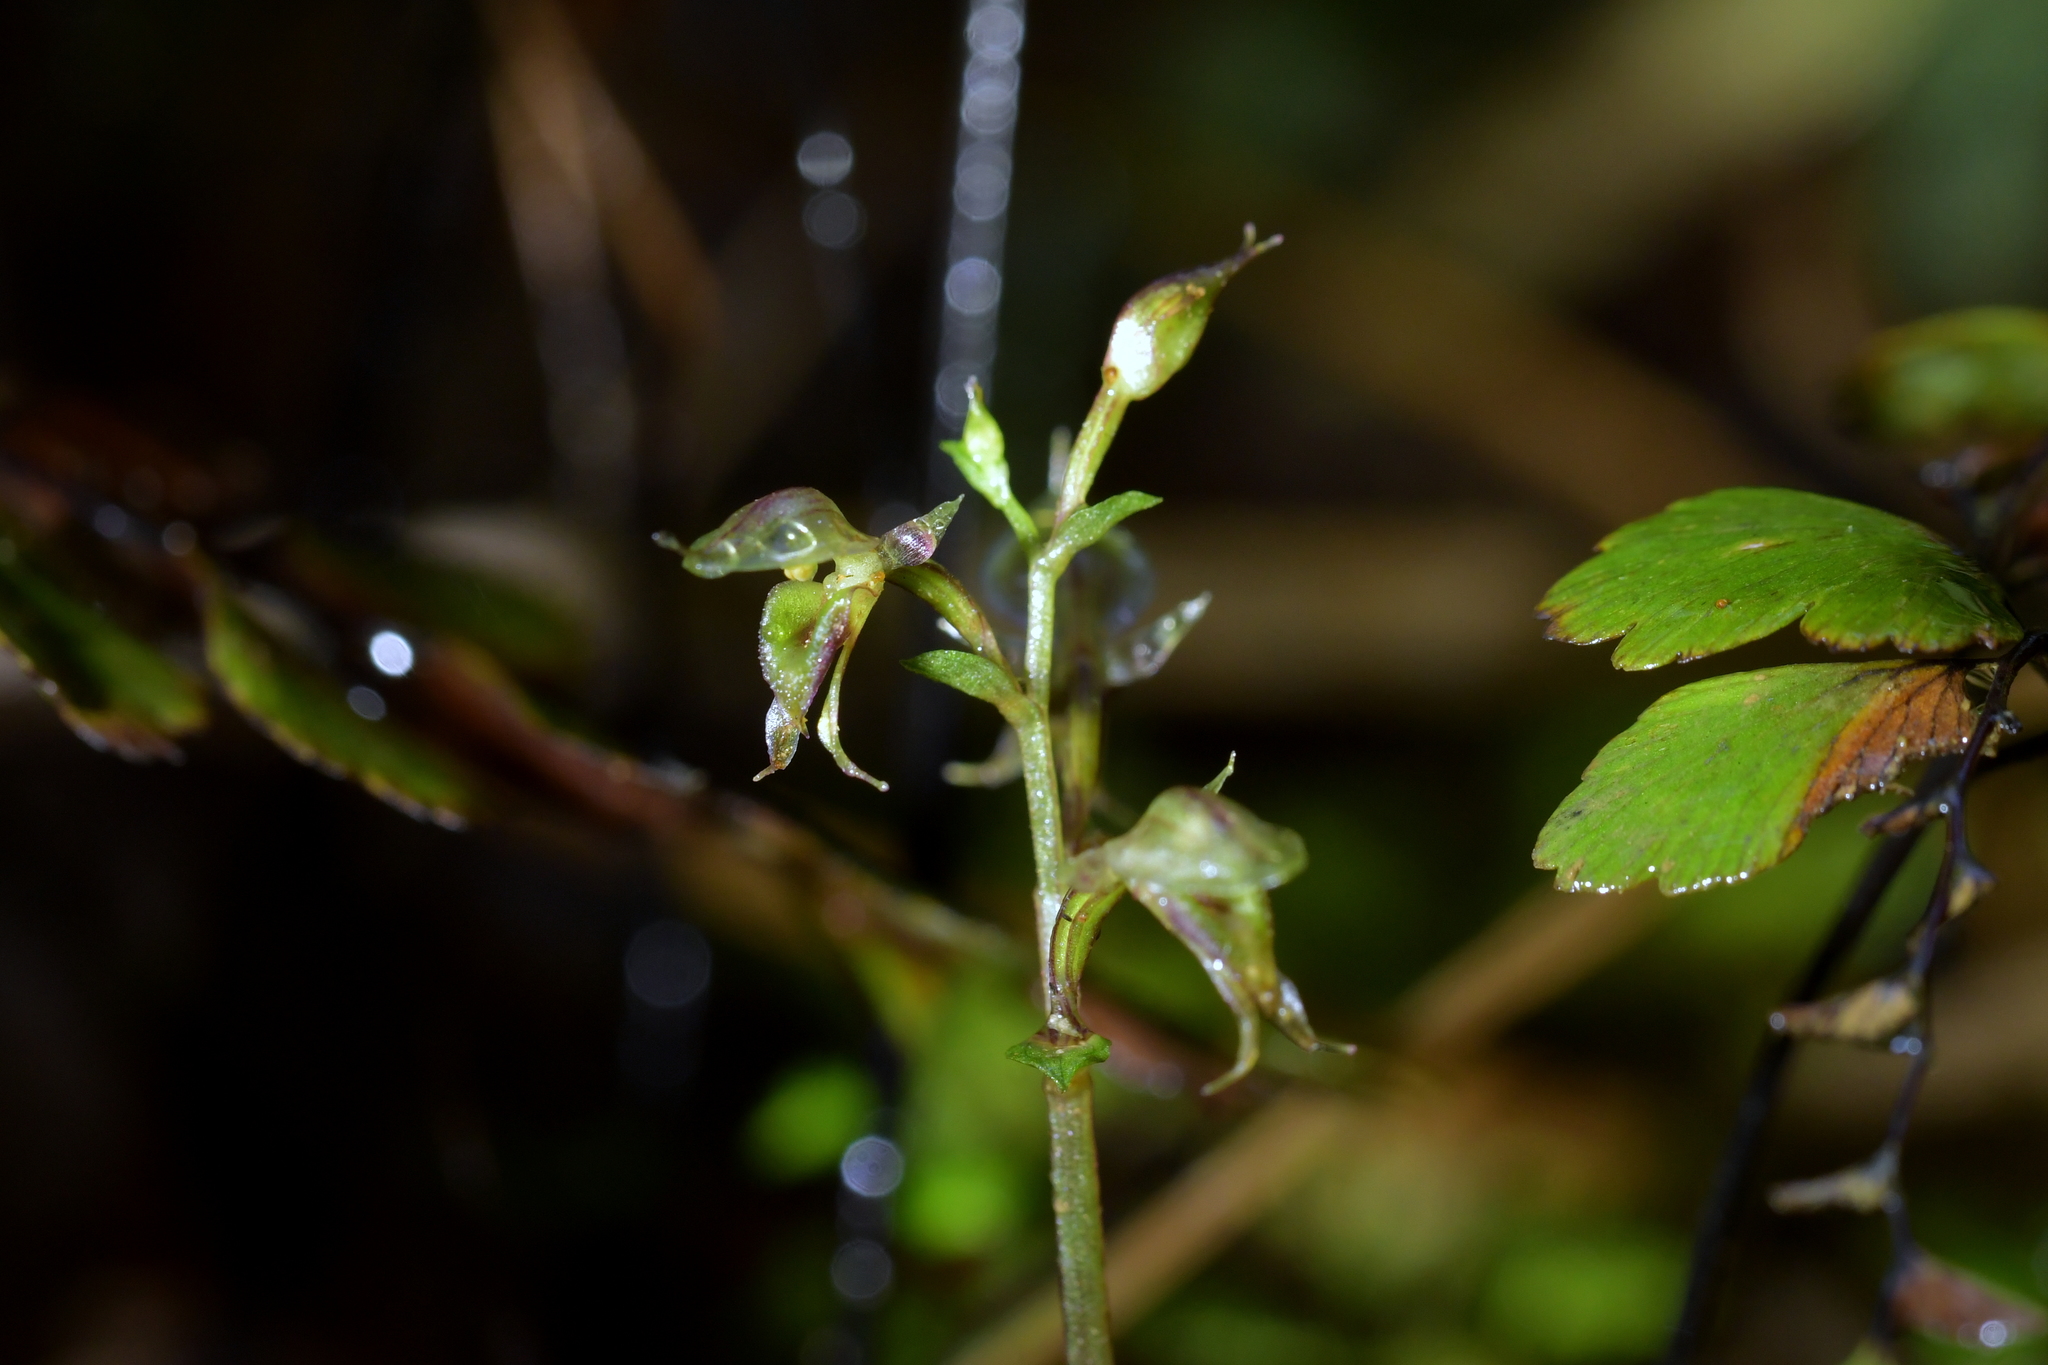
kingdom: Plantae
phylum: Tracheophyta
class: Liliopsida
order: Asparagales
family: Orchidaceae
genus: Acianthus
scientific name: Acianthus sinclairii
